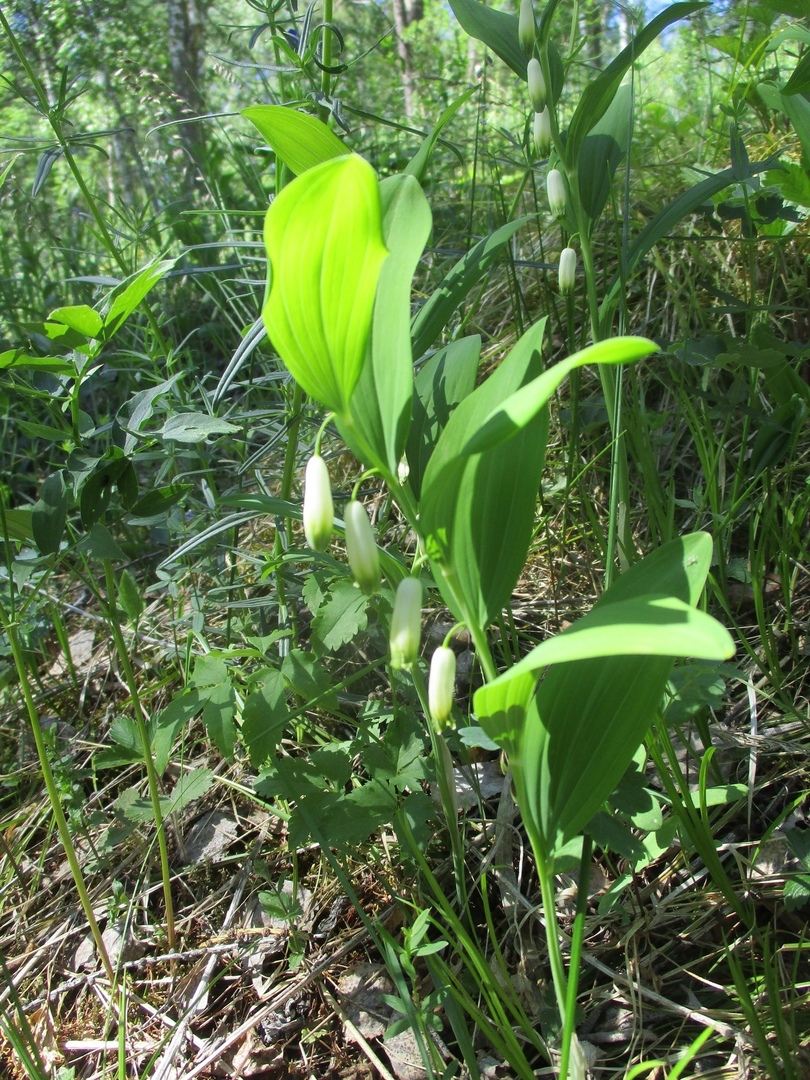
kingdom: Plantae
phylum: Tracheophyta
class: Liliopsida
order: Asparagales
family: Asparagaceae
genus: Polygonatum
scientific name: Polygonatum odoratum
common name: Angular solomon's-seal
